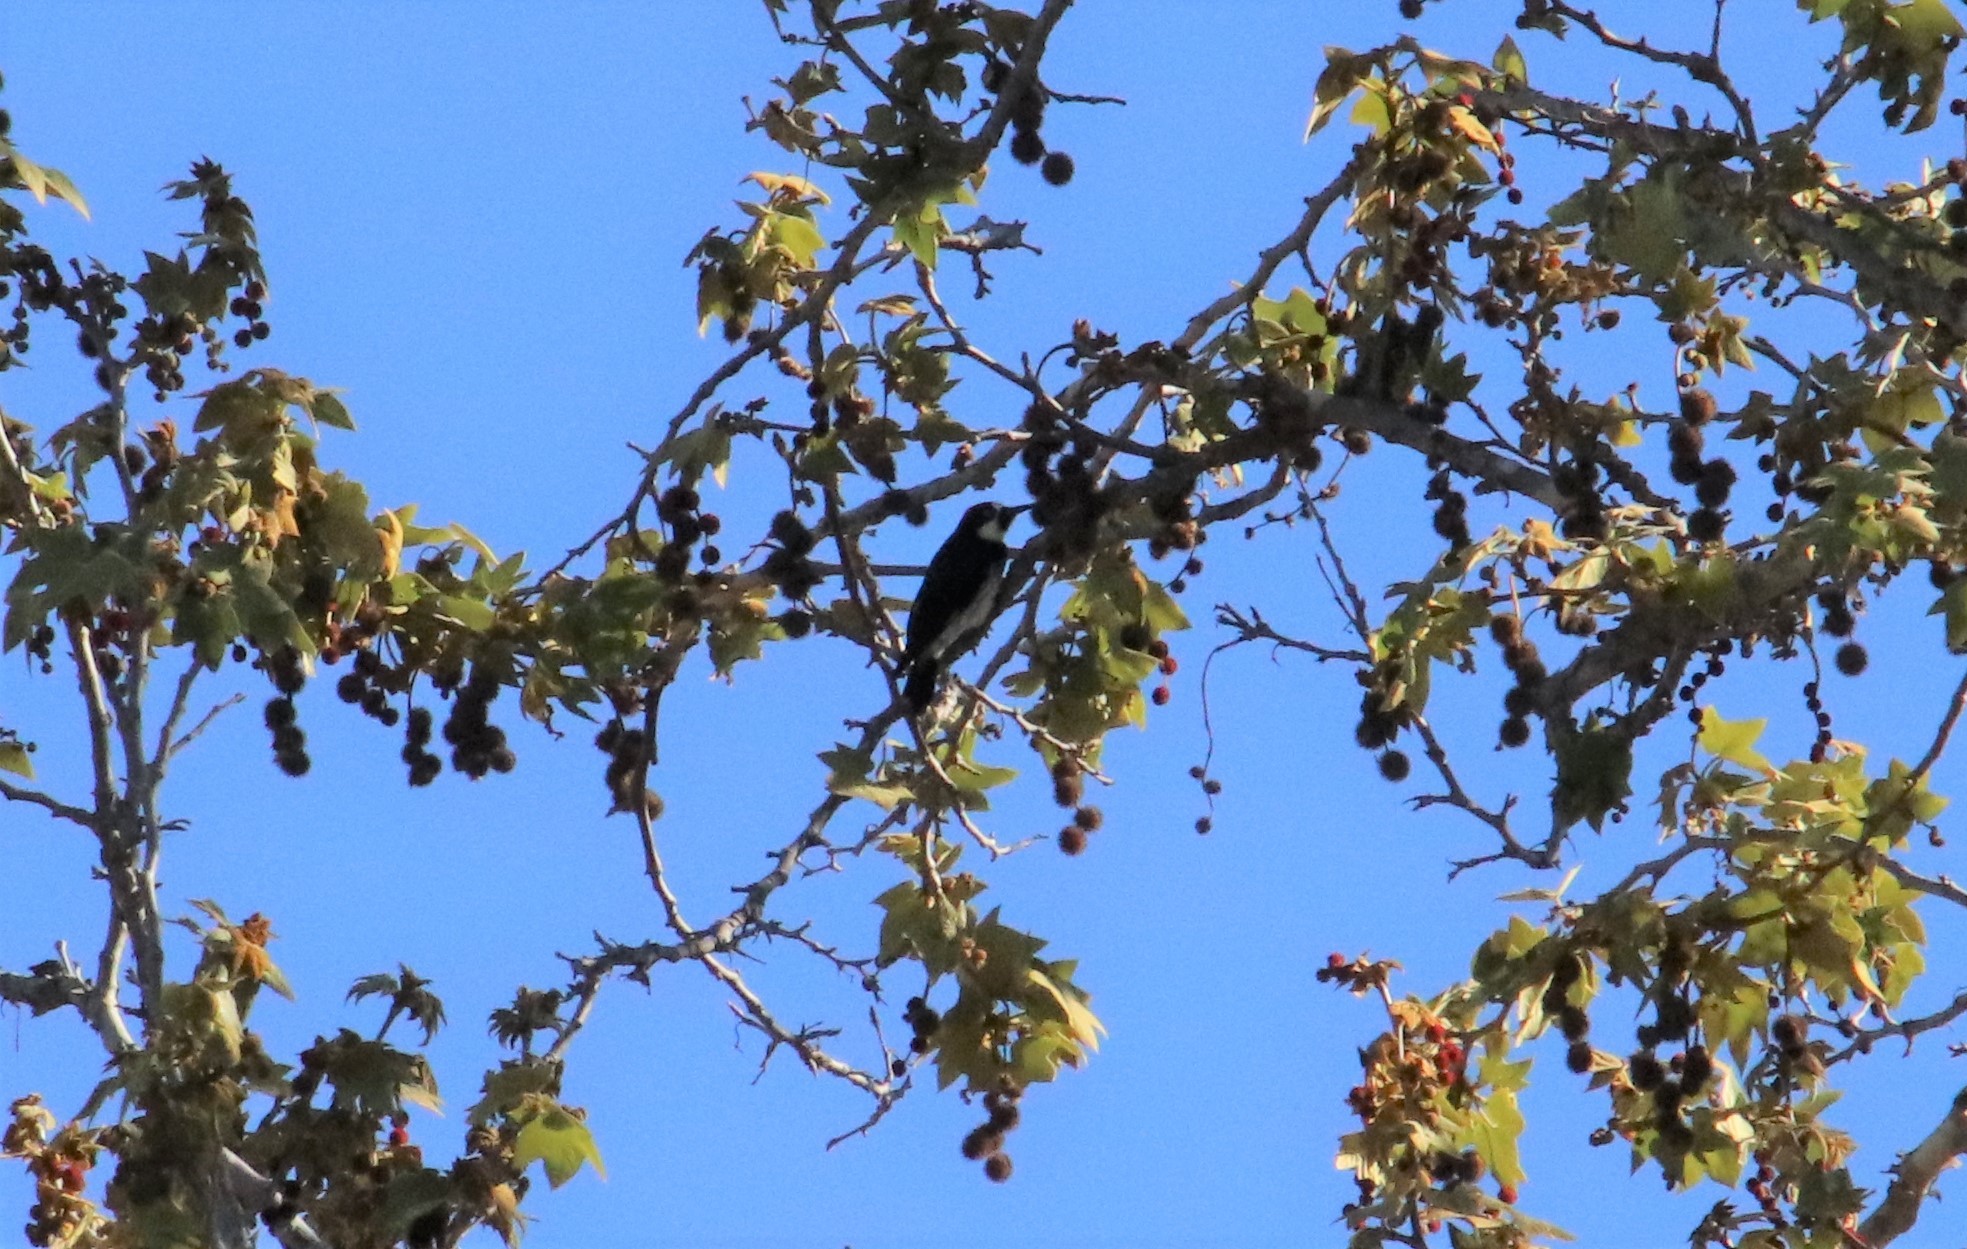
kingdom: Animalia
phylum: Chordata
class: Aves
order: Piciformes
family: Picidae
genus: Melanerpes
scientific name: Melanerpes formicivorus
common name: Acorn woodpecker
